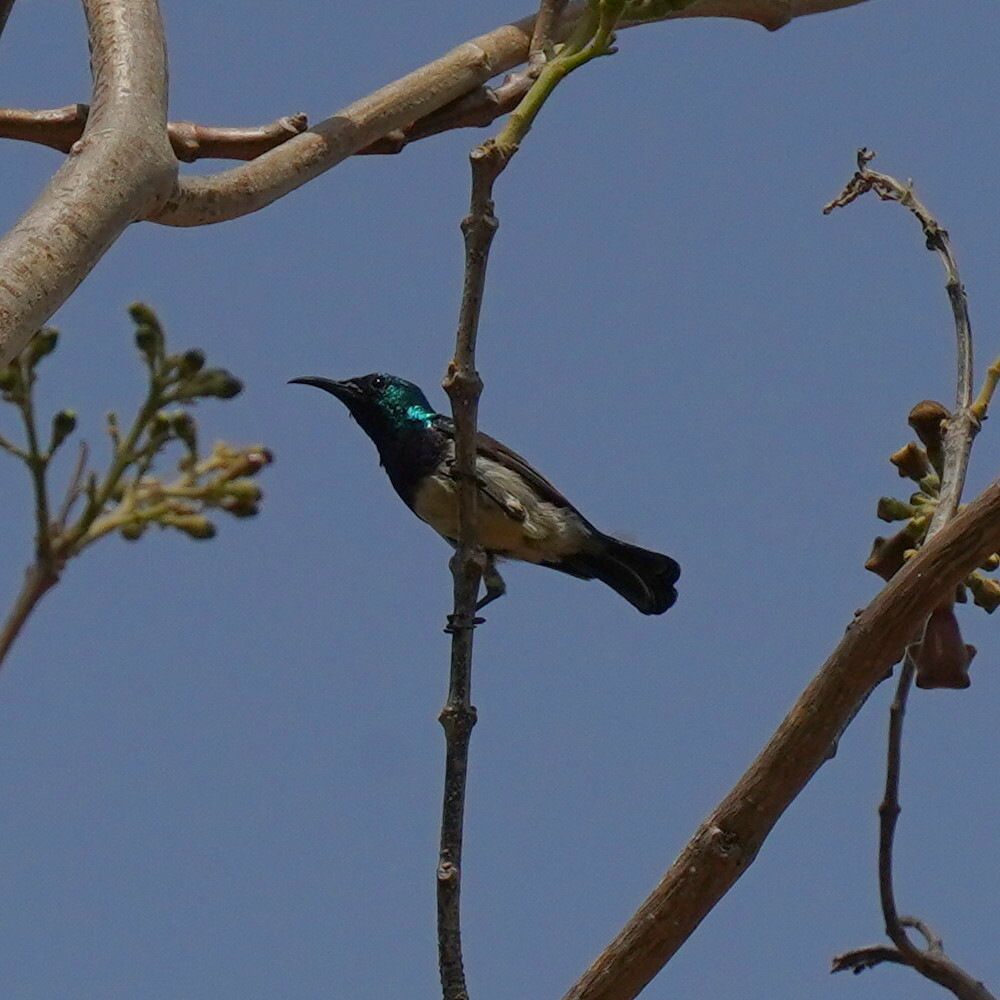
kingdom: Animalia
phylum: Chordata
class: Aves
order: Passeriformes
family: Nectariniidae
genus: Cinnyris
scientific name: Cinnyris venustus
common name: Variable sunbird
